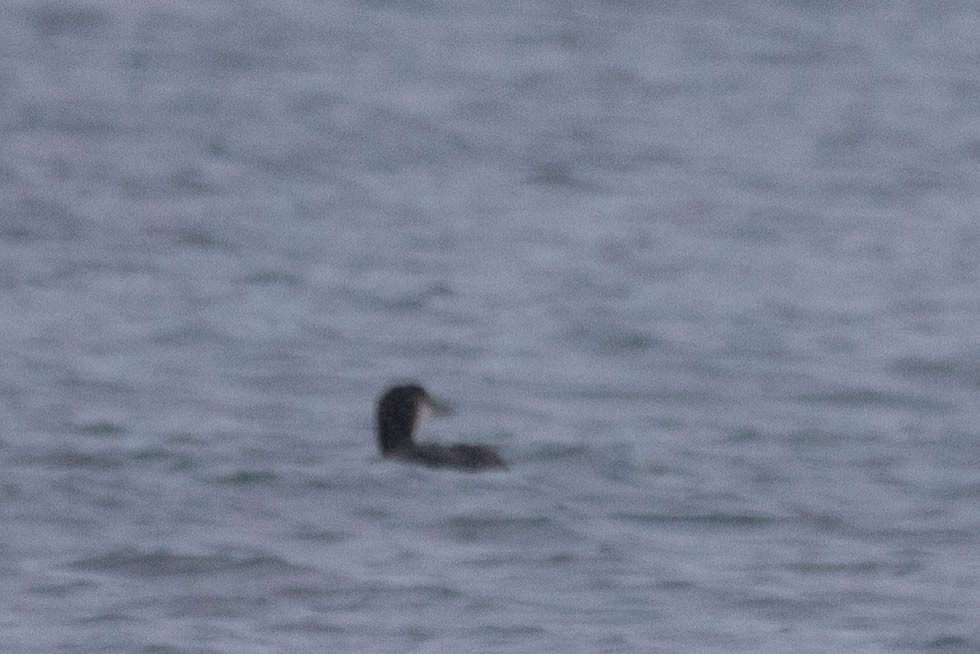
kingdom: Animalia
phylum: Chordata
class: Aves
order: Gaviiformes
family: Gaviidae
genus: Gavia
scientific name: Gavia immer
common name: Common loon
